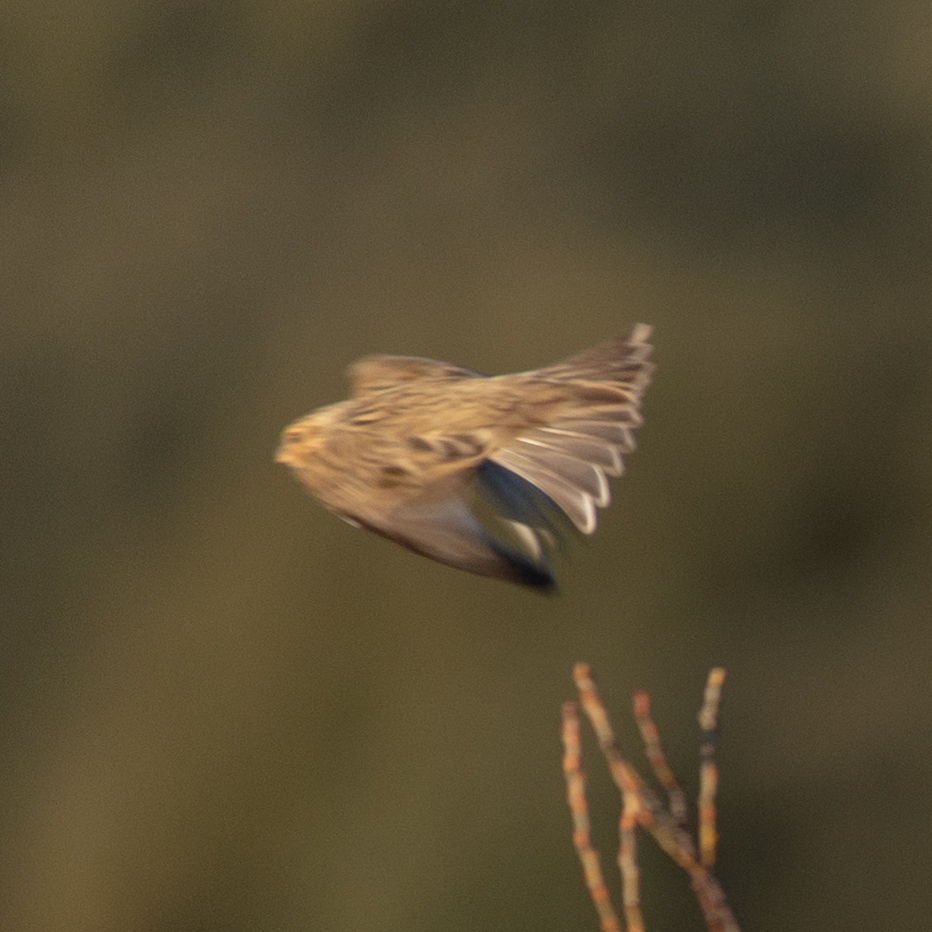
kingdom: Animalia
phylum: Chordata
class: Aves
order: Passeriformes
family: Emberizidae
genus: Emberiza
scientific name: Emberiza calandra
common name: Corn bunting
